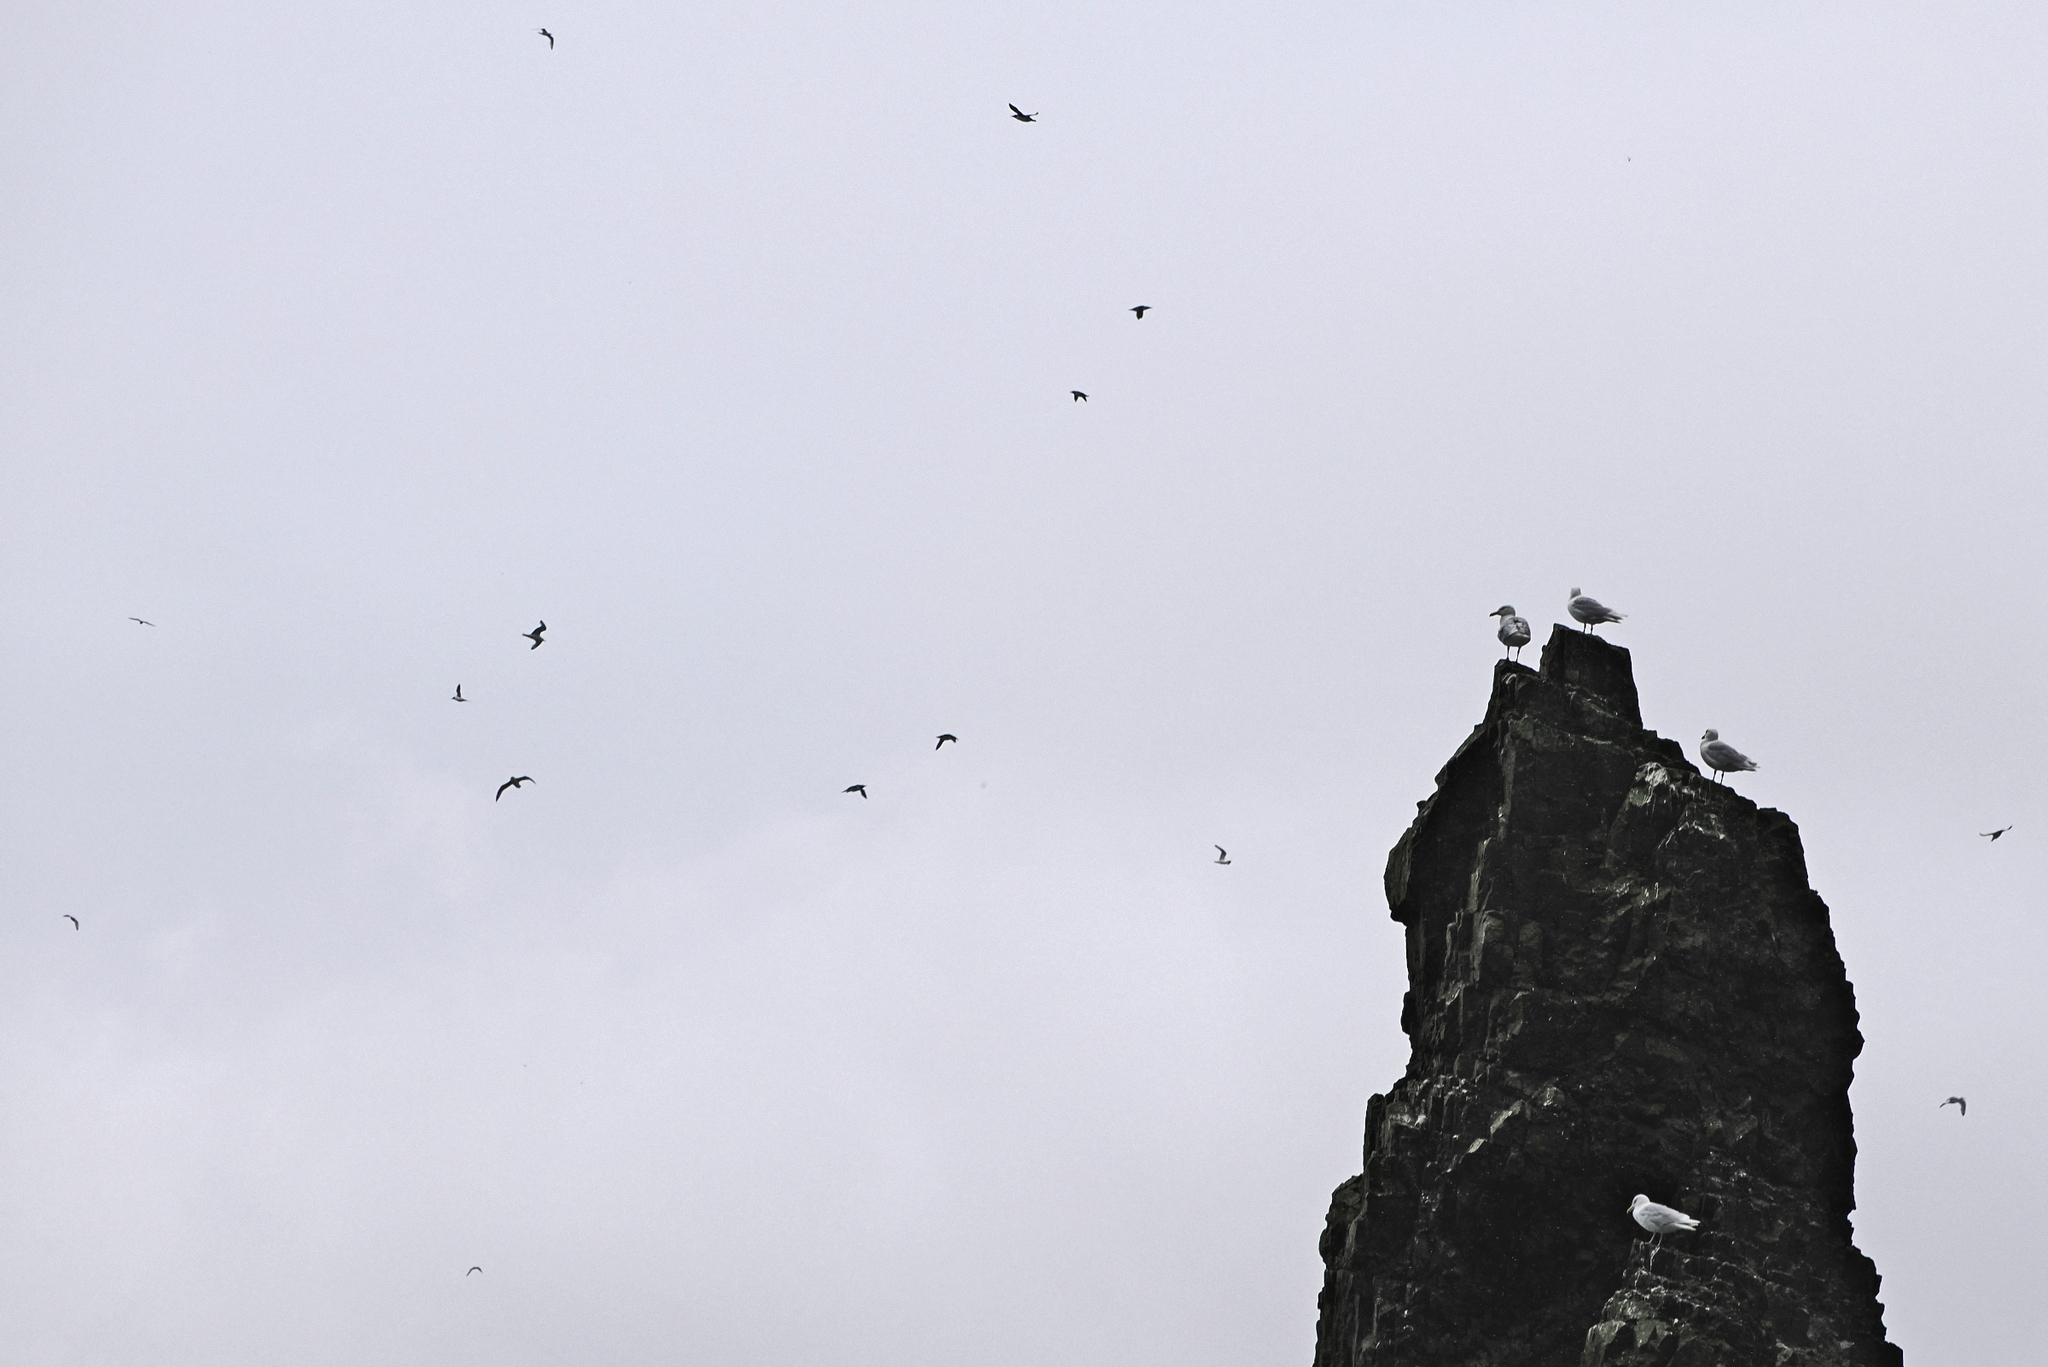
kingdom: Animalia
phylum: Chordata
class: Aves
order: Charadriiformes
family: Laridae
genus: Larus
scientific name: Larus hyperboreus
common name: Glaucous gull
